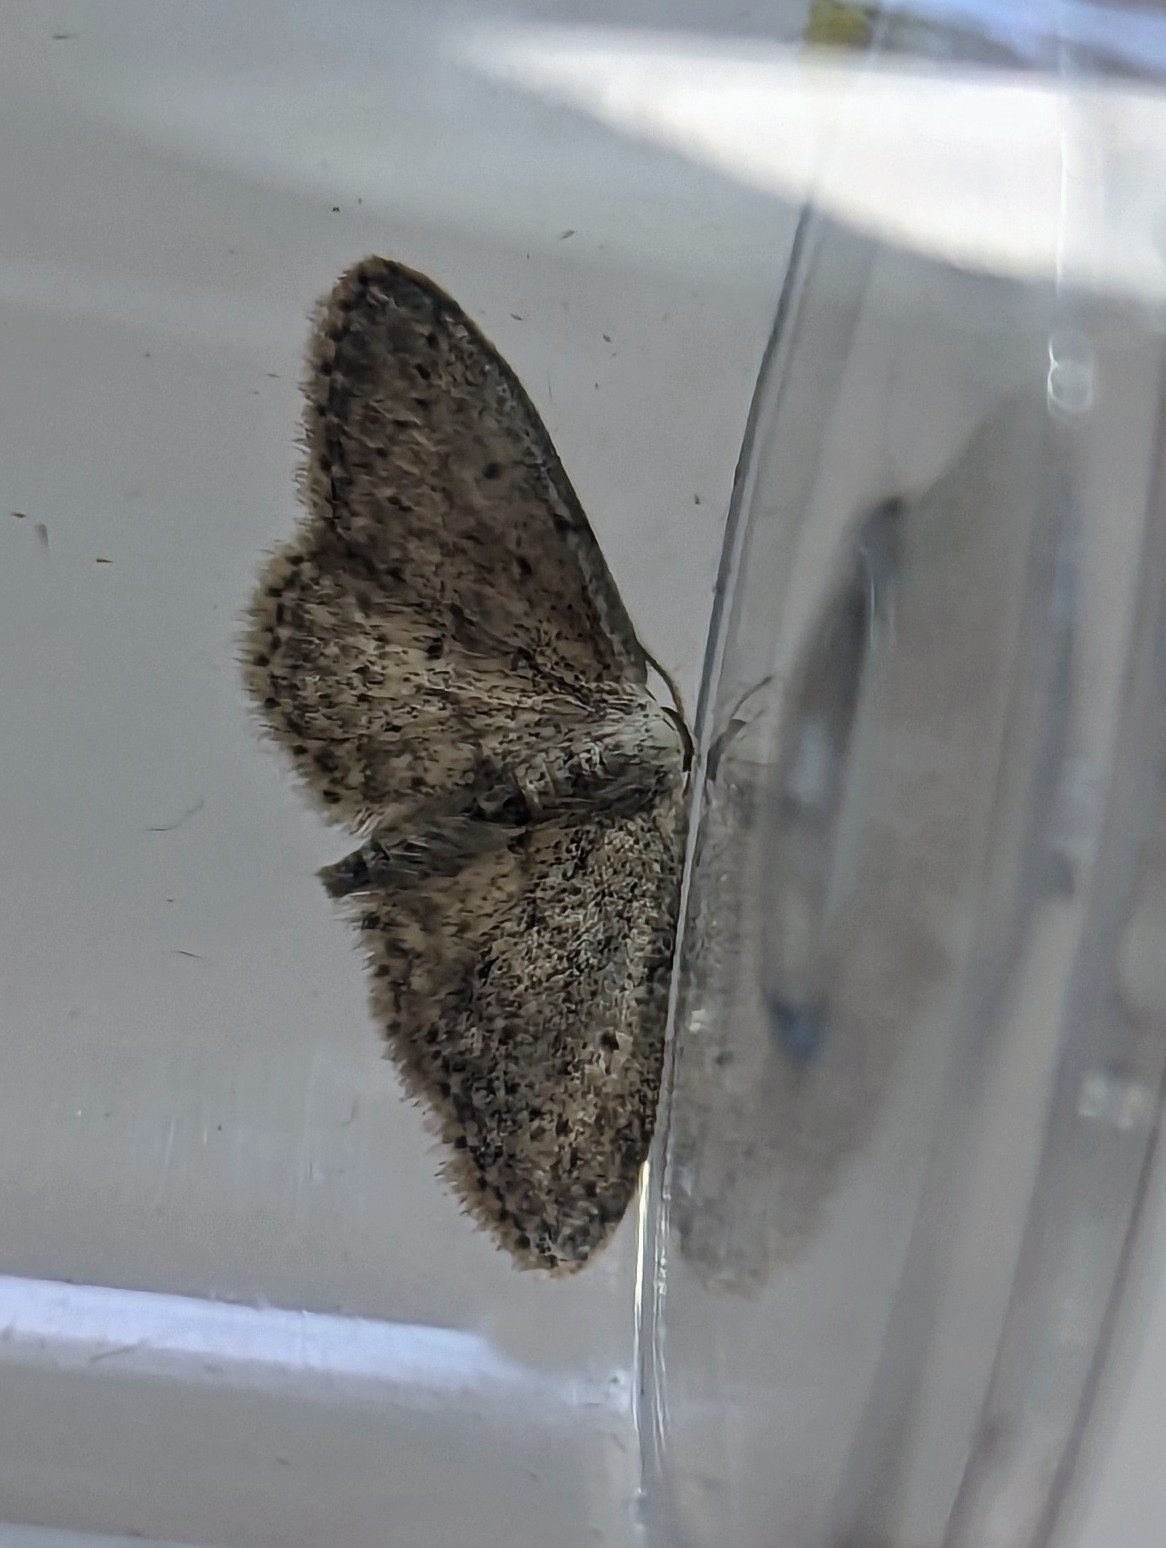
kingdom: Animalia
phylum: Arthropoda
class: Insecta
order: Lepidoptera
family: Geometridae
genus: Idaea
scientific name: Idaea seriata
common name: Small dusty wave
